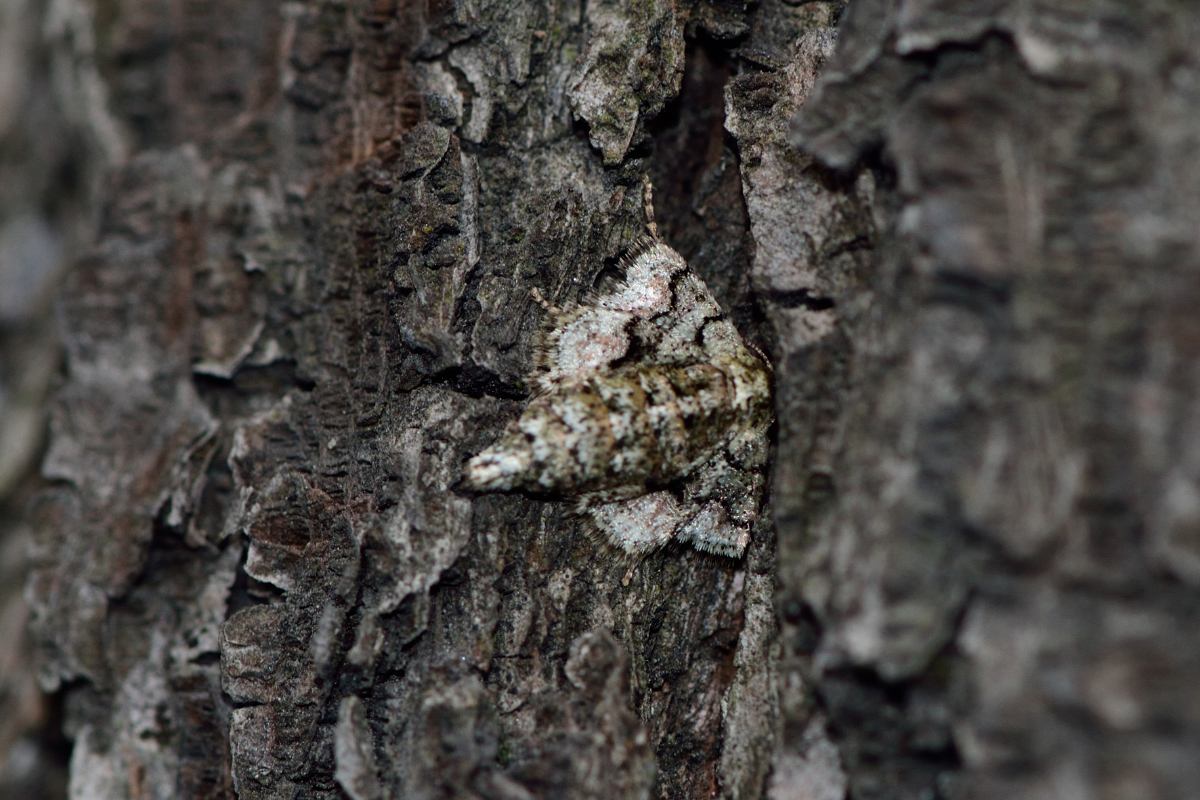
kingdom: Animalia
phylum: Arthropoda
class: Insecta
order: Lepidoptera
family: Geometridae
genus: Agriopis
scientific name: Agriopis marginaria
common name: Dotted border
